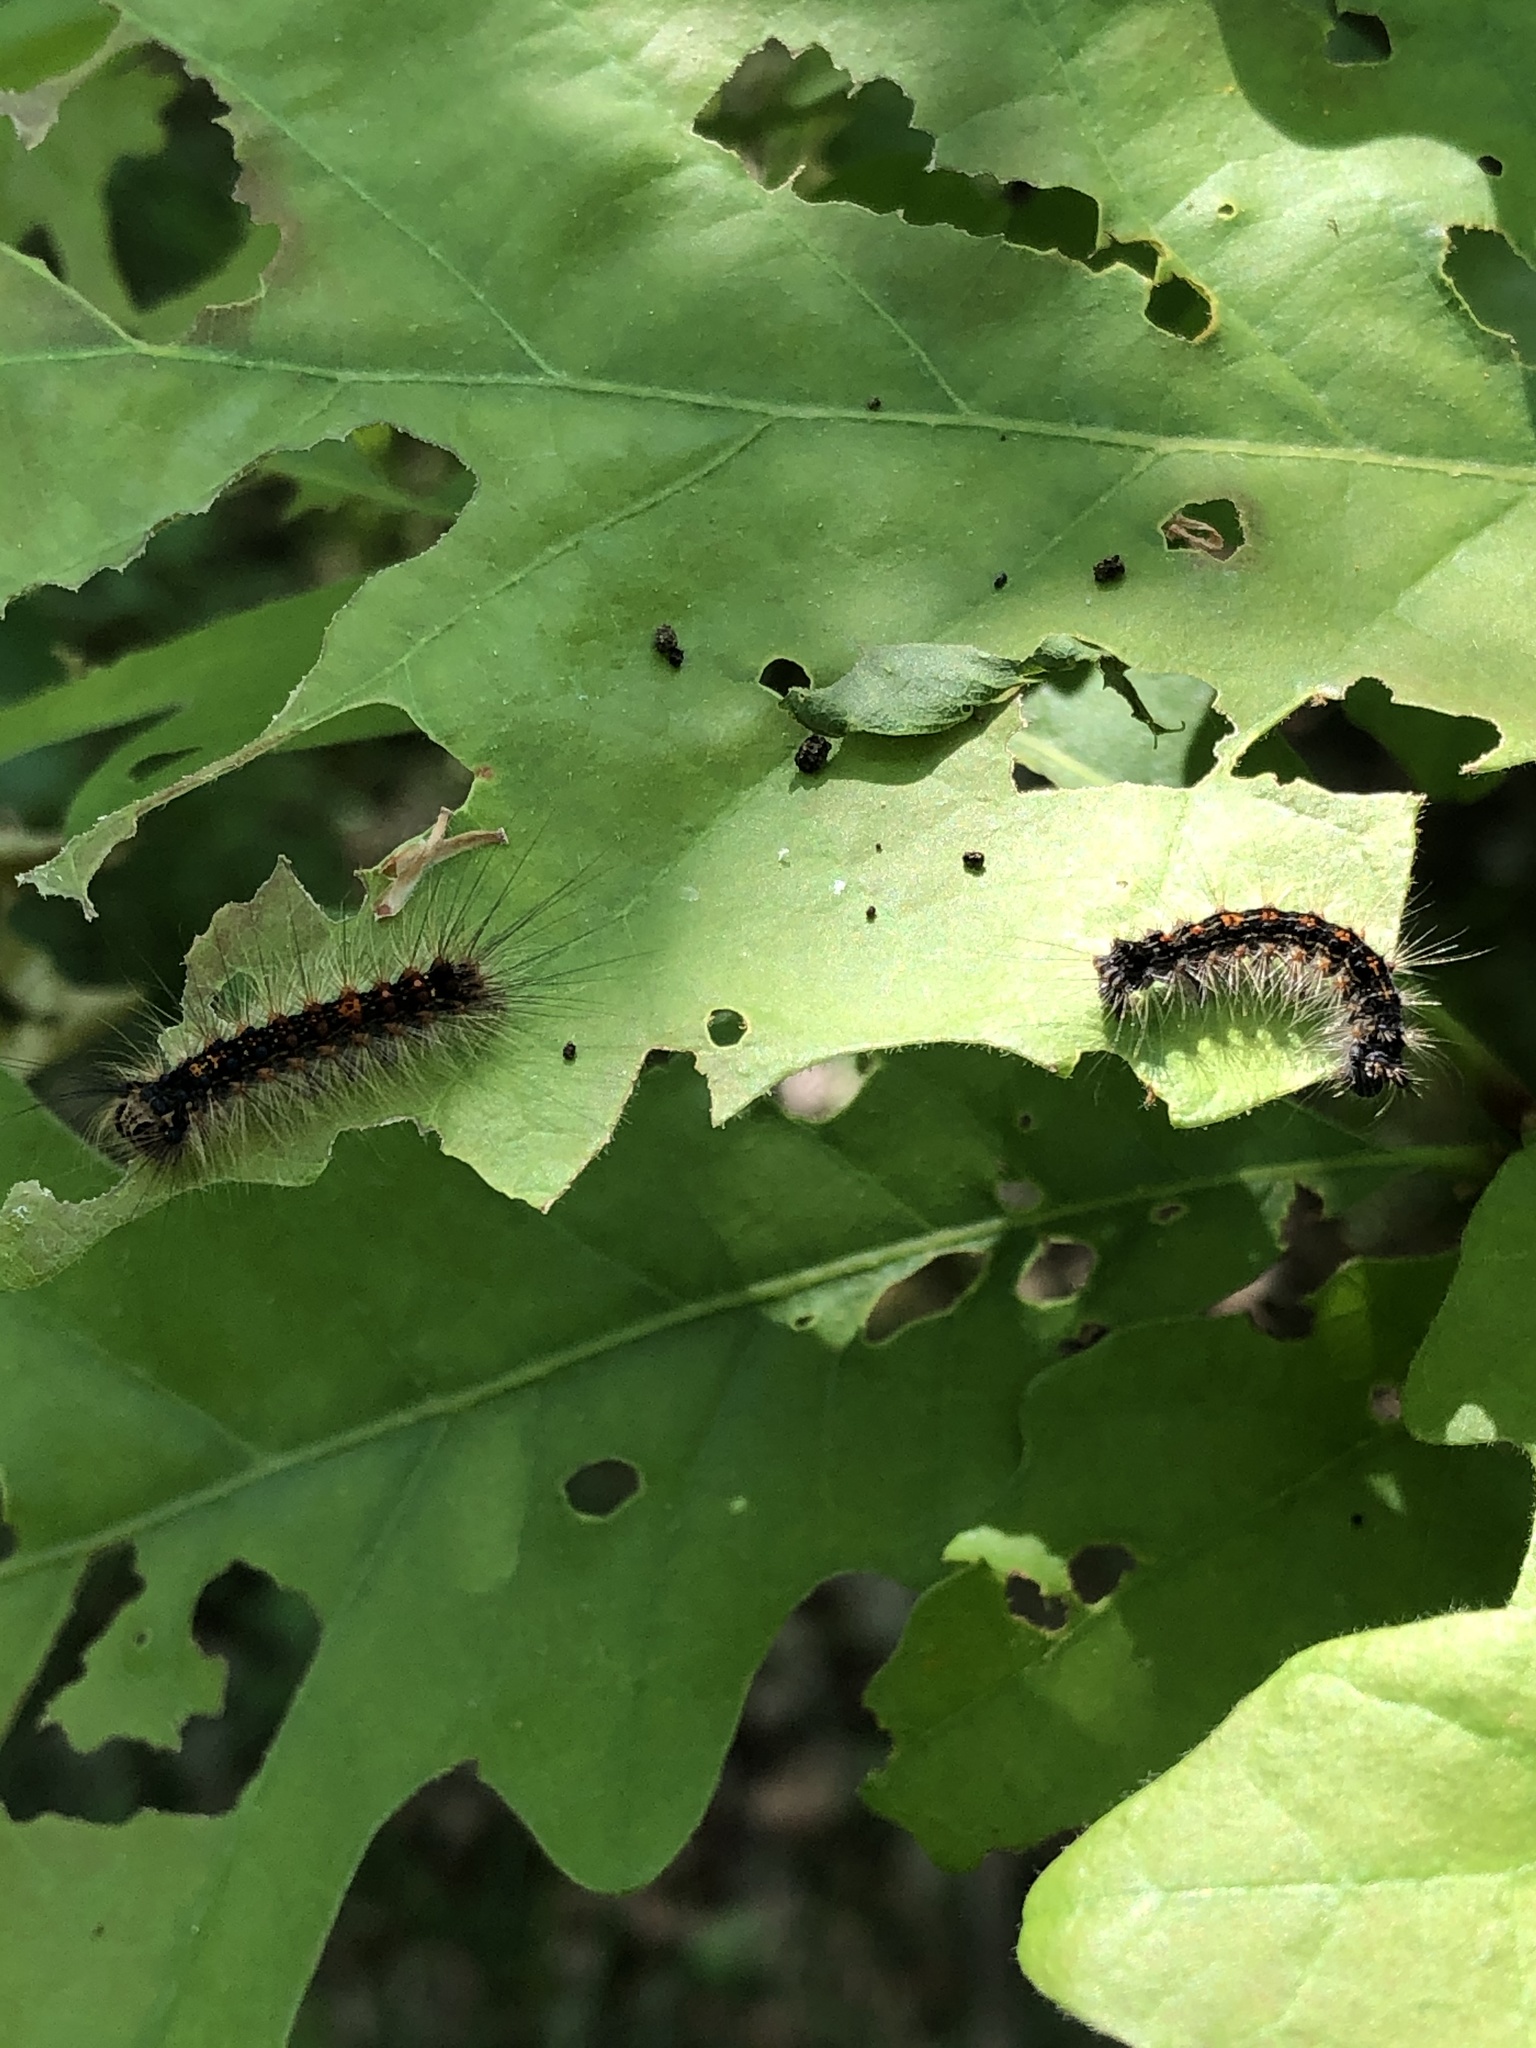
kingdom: Animalia
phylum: Arthropoda
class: Insecta
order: Lepidoptera
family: Erebidae
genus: Lymantria
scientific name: Lymantria dispar
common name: Gypsy moth
